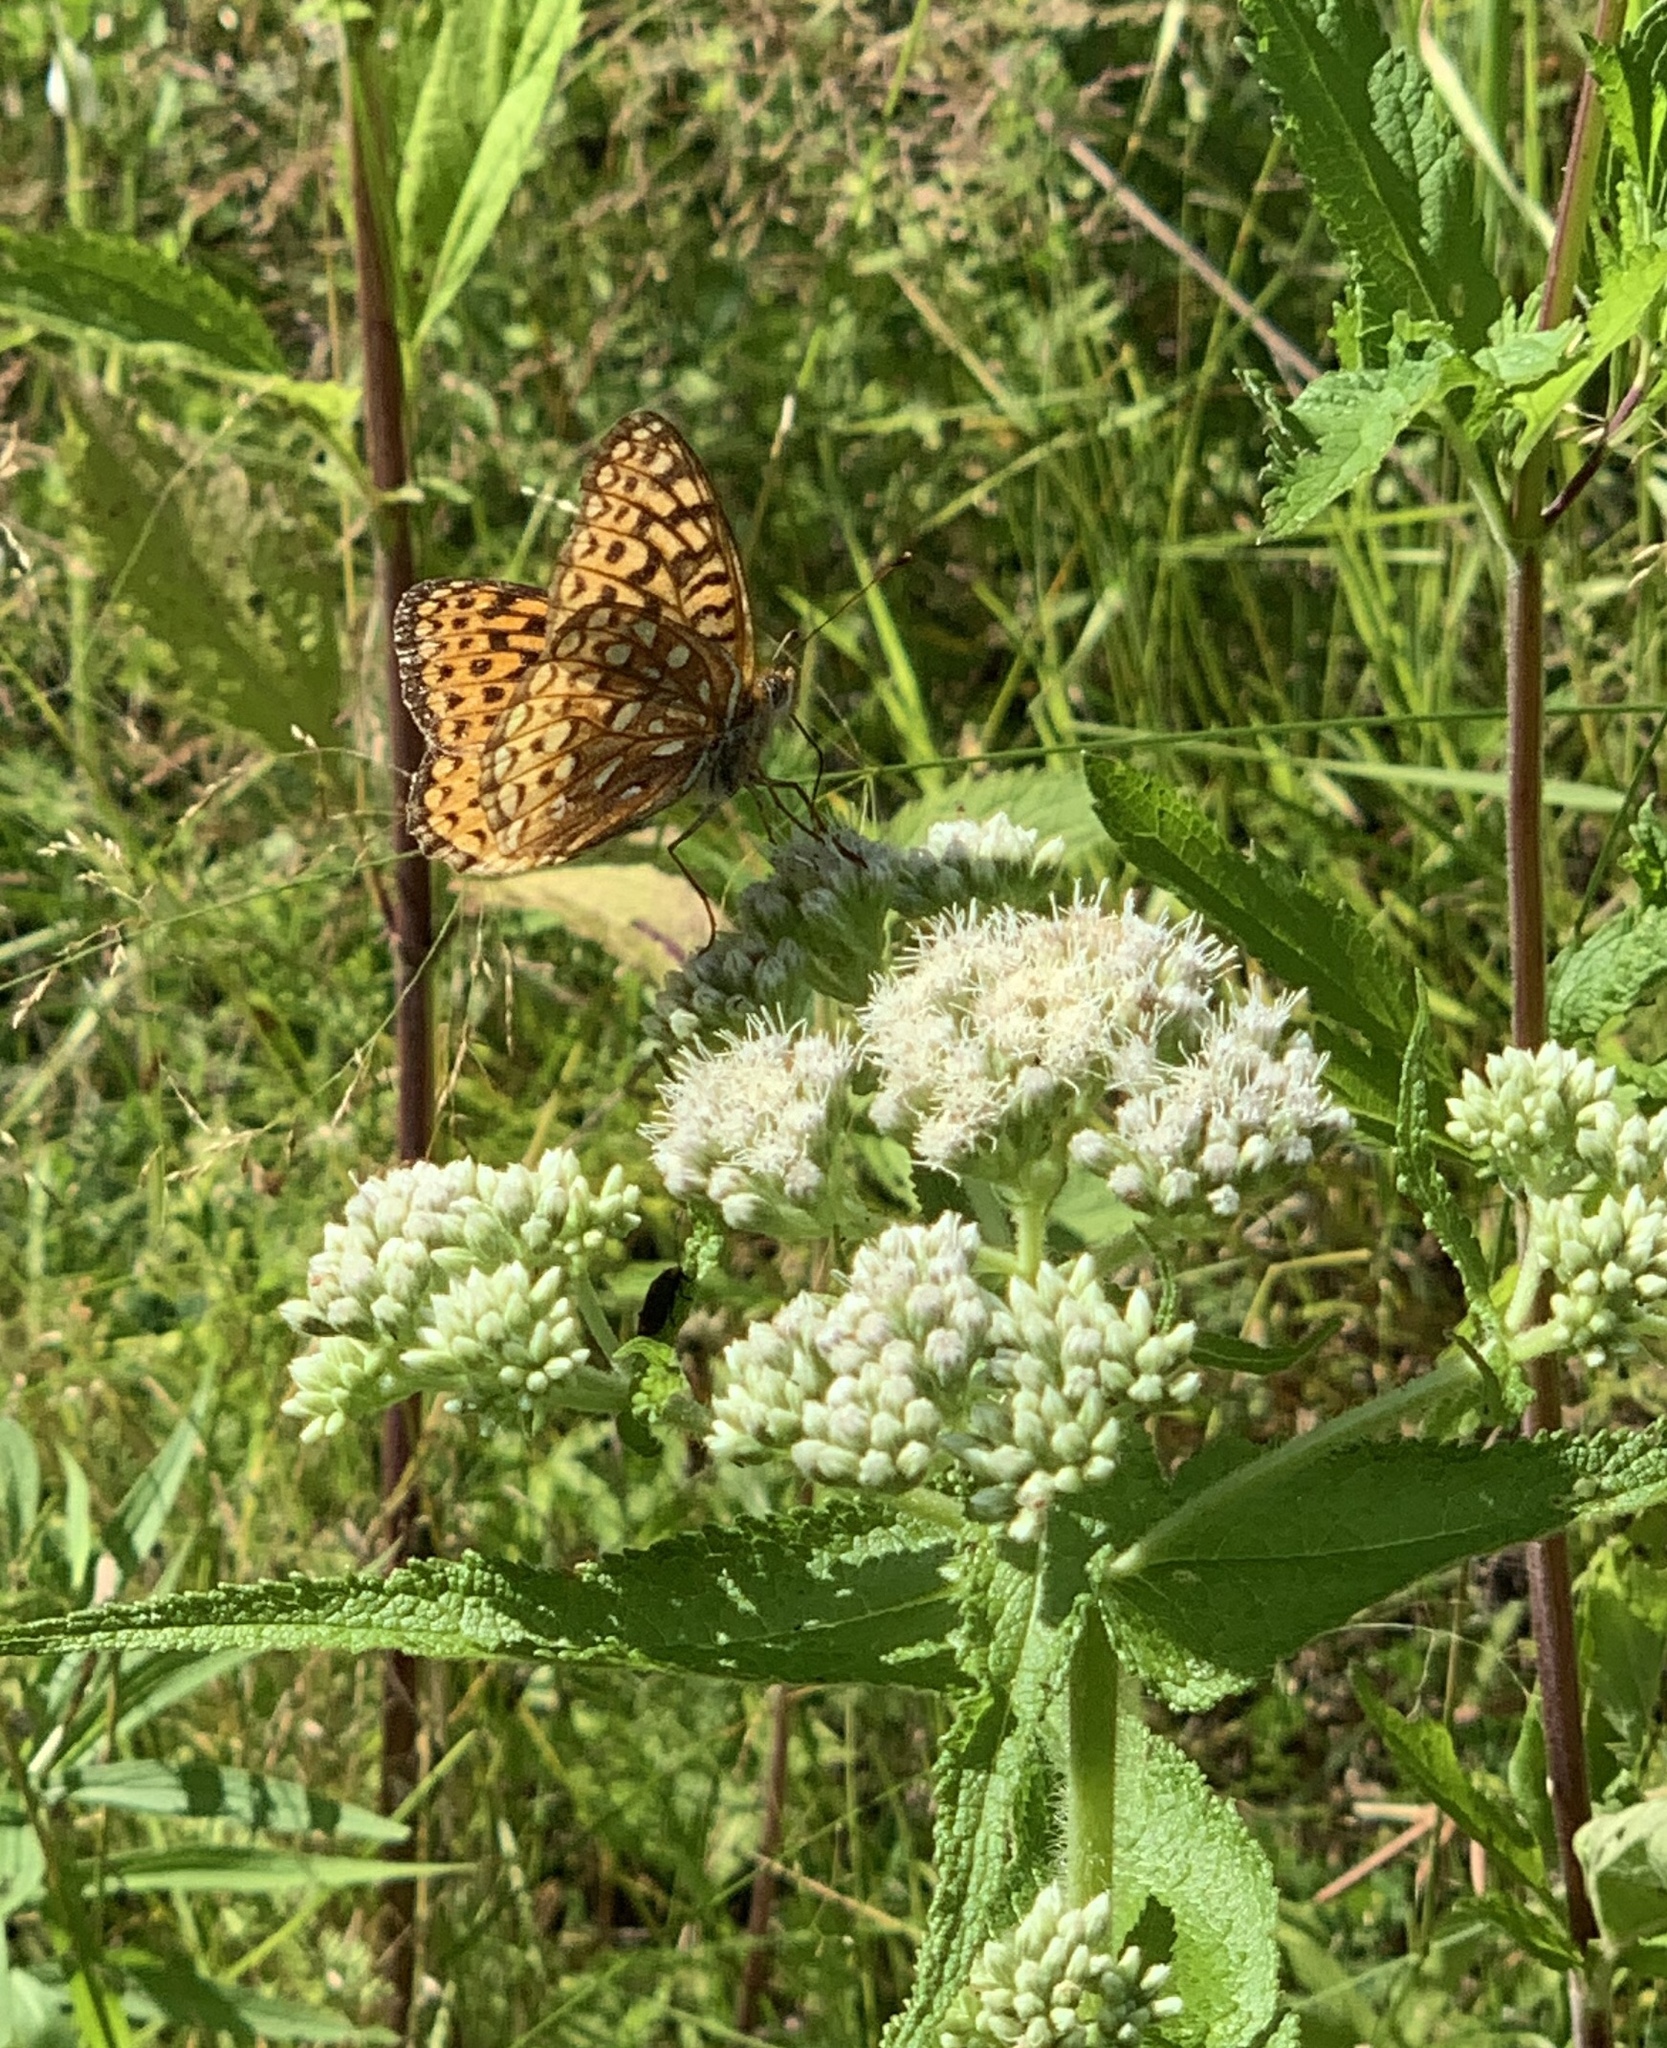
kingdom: Animalia
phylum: Arthropoda
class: Insecta
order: Lepidoptera
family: Nymphalidae
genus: Speyeria
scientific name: Speyeria atlantis
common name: Atlantis fritillary
